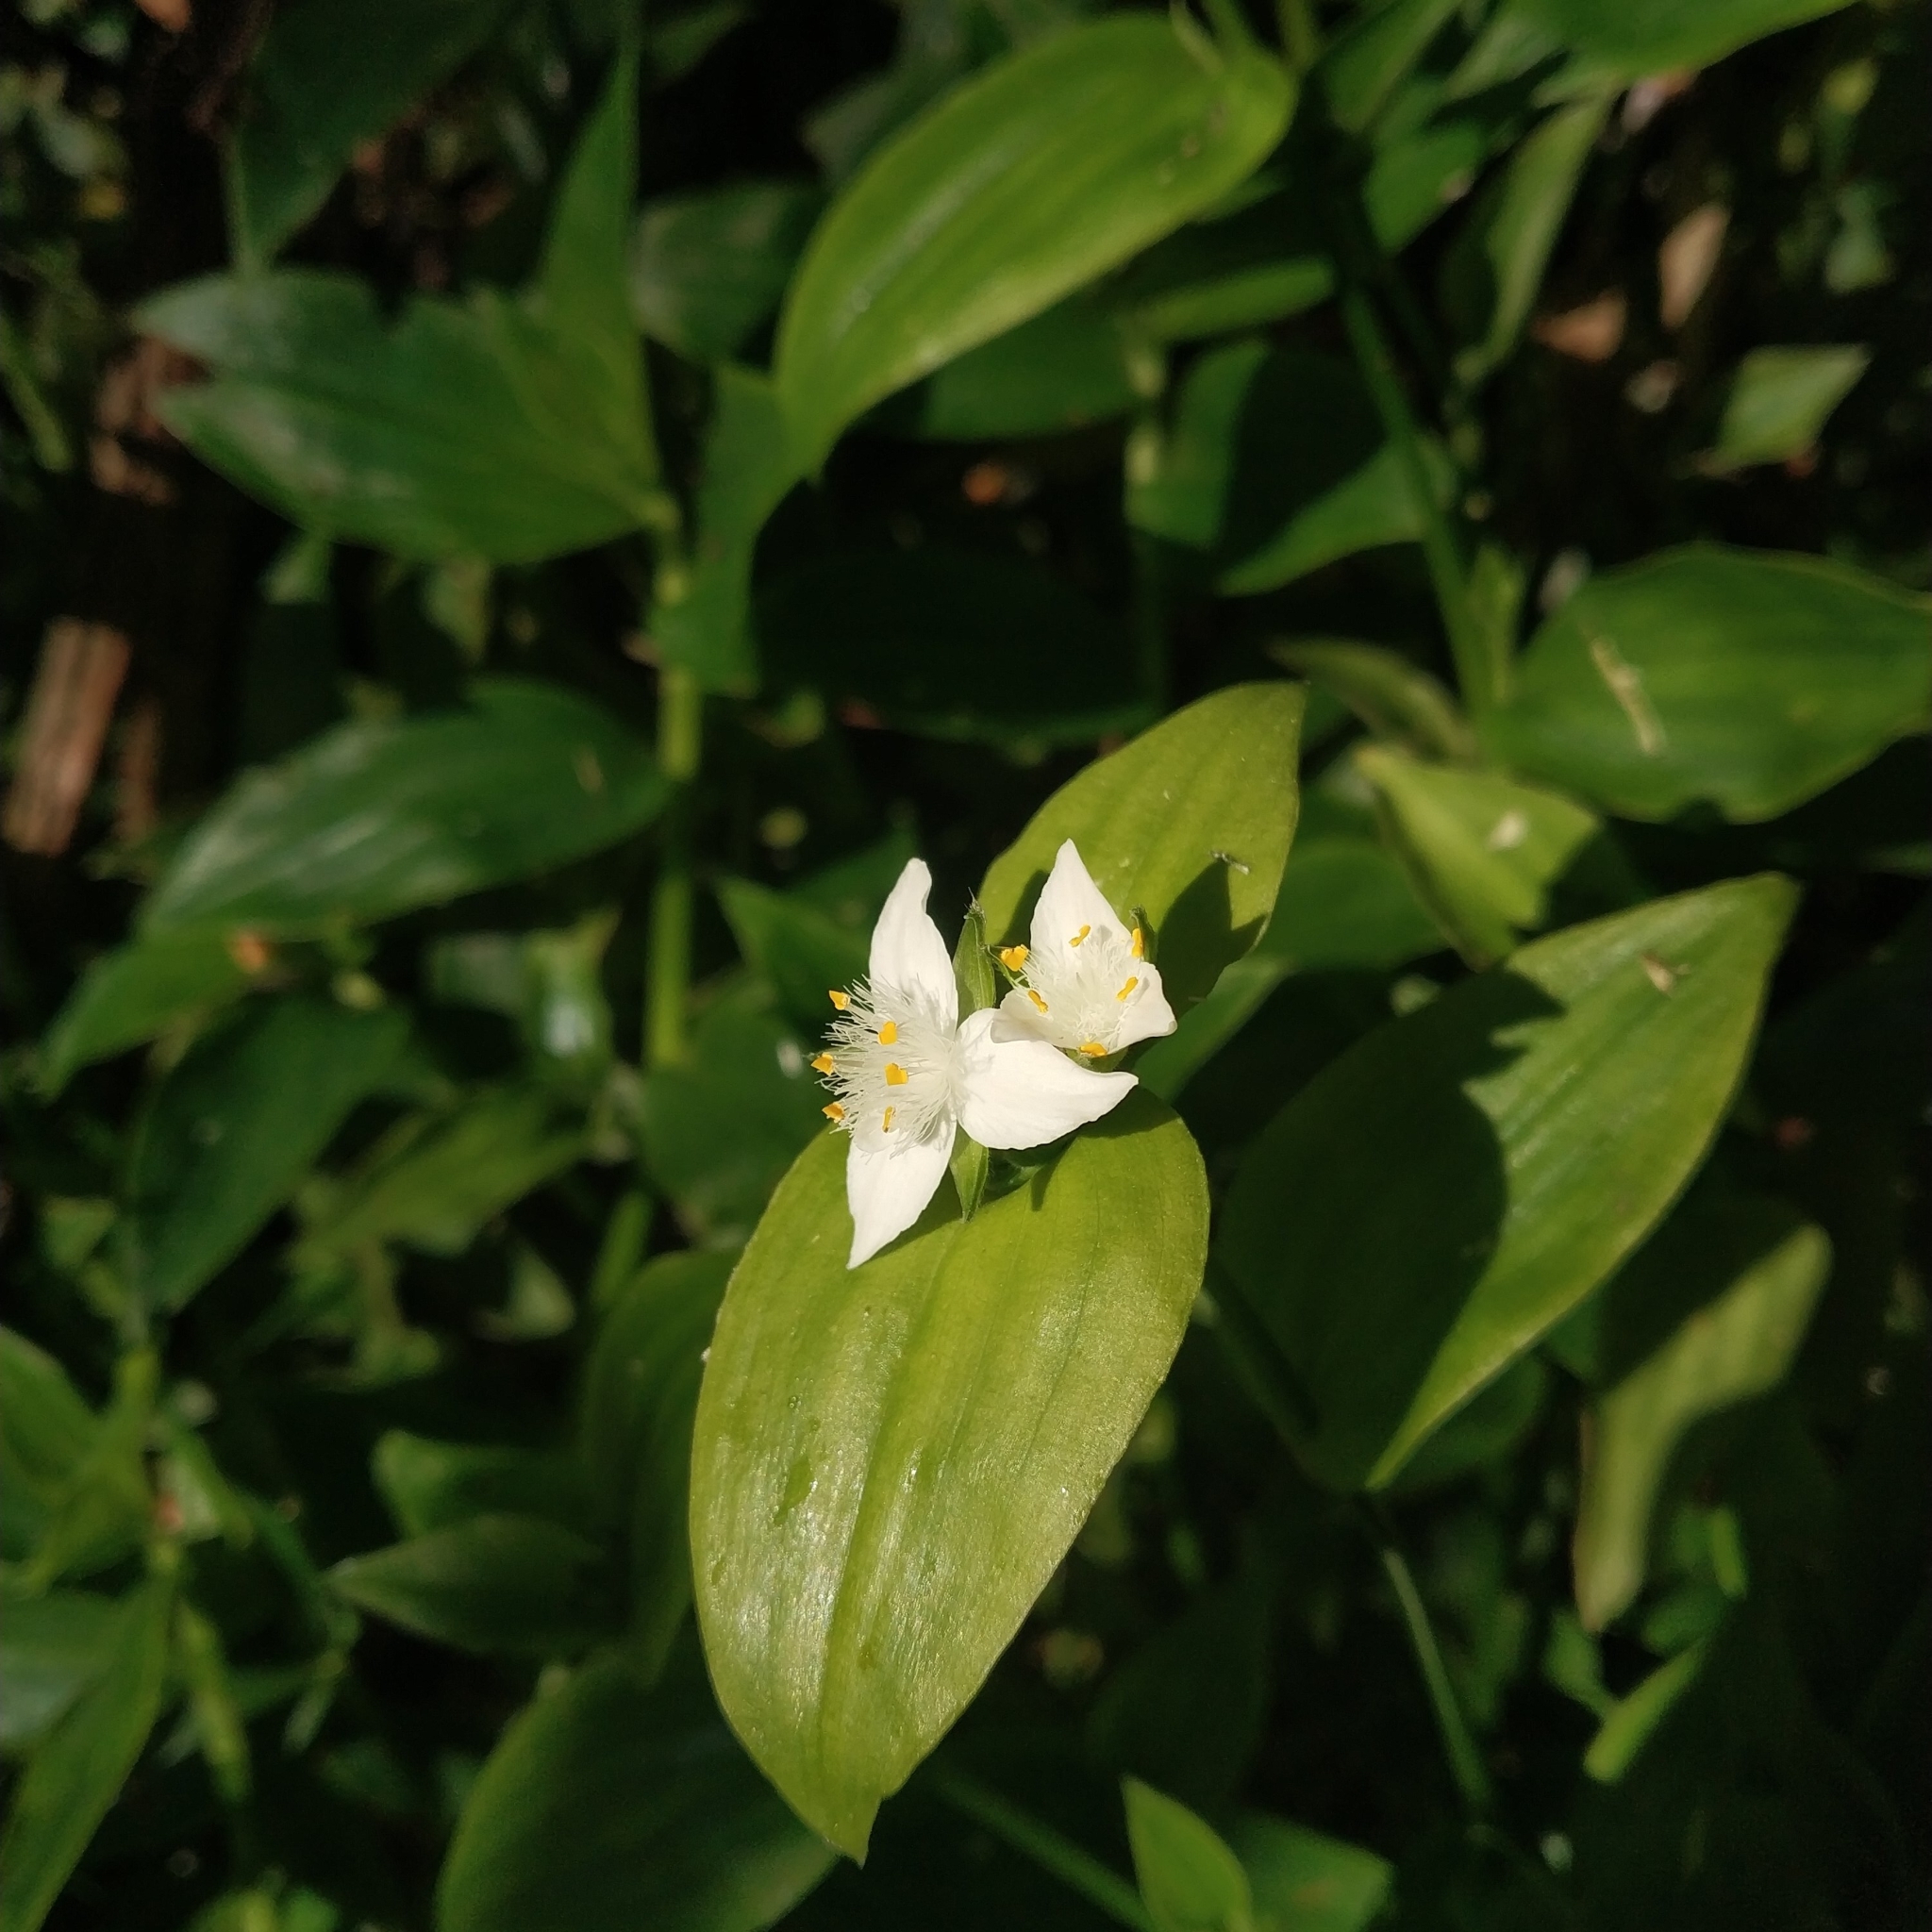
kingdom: Plantae
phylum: Tracheophyta
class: Liliopsida
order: Commelinales
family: Commelinaceae
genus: Tradescantia
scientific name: Tradescantia fluminensis
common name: Wandering-jew
